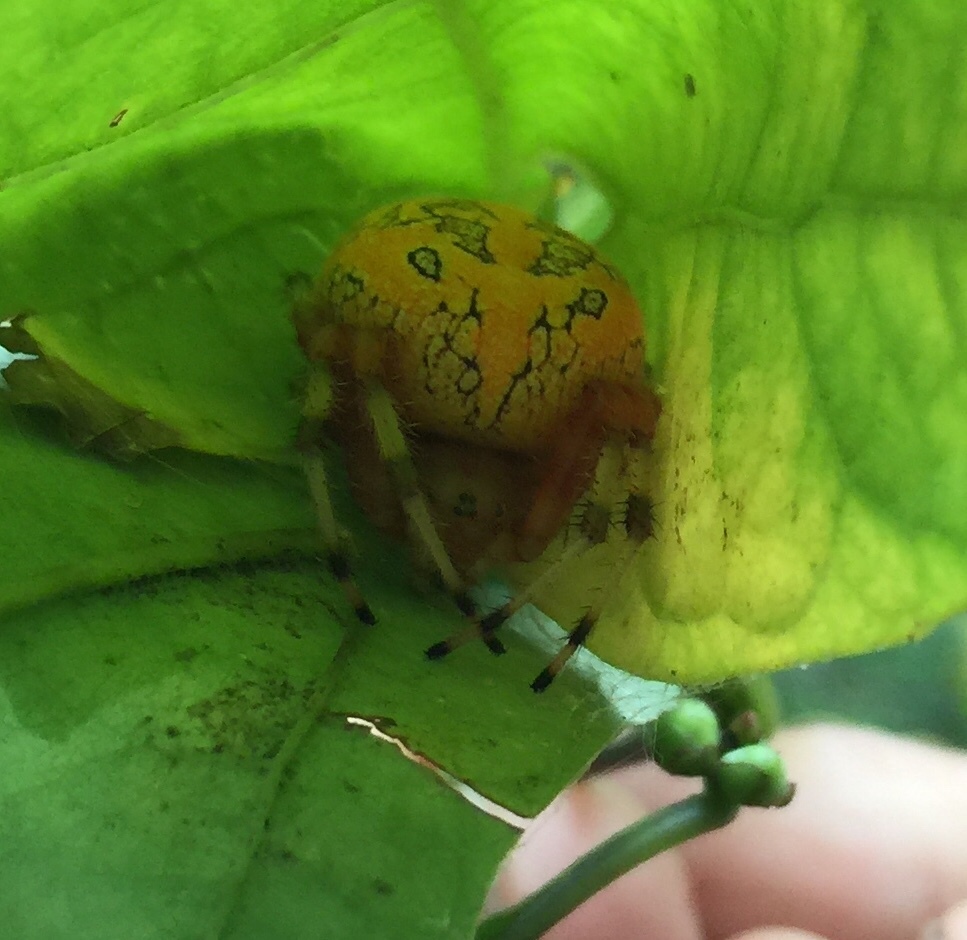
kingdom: Animalia
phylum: Arthropoda
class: Arachnida
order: Araneae
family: Araneidae
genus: Araneus
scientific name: Araneus marmoreus
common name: Marbled orbweaver
